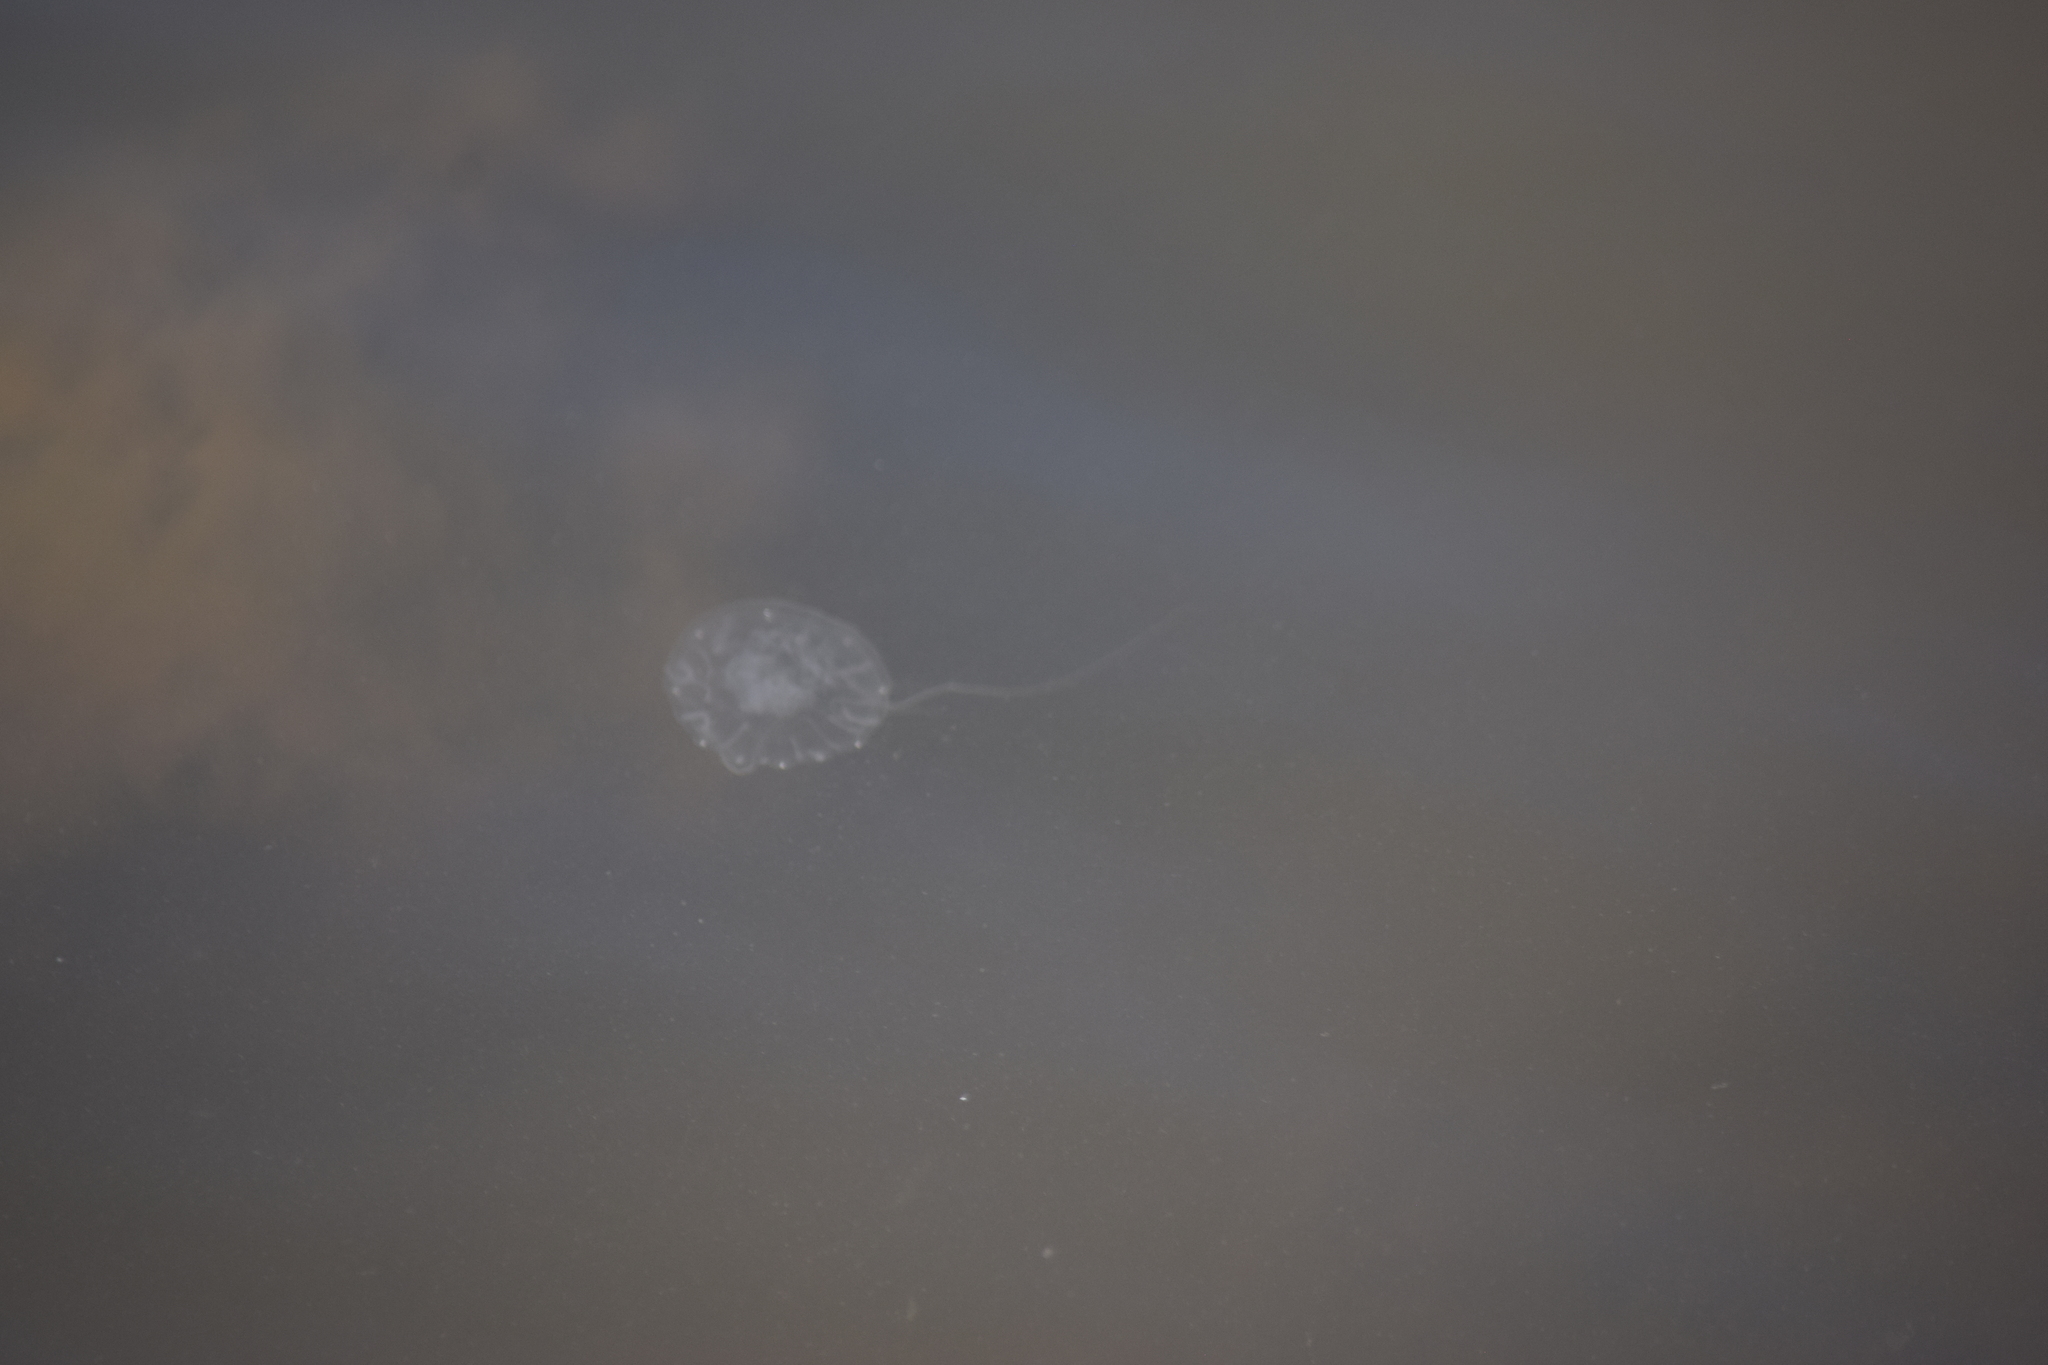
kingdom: Animalia
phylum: Cnidaria
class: Scyphozoa
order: Semaeostomeae
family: Pelagiidae
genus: Chrysaora
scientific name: Chrysaora chesapeakei
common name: Bay nettle
